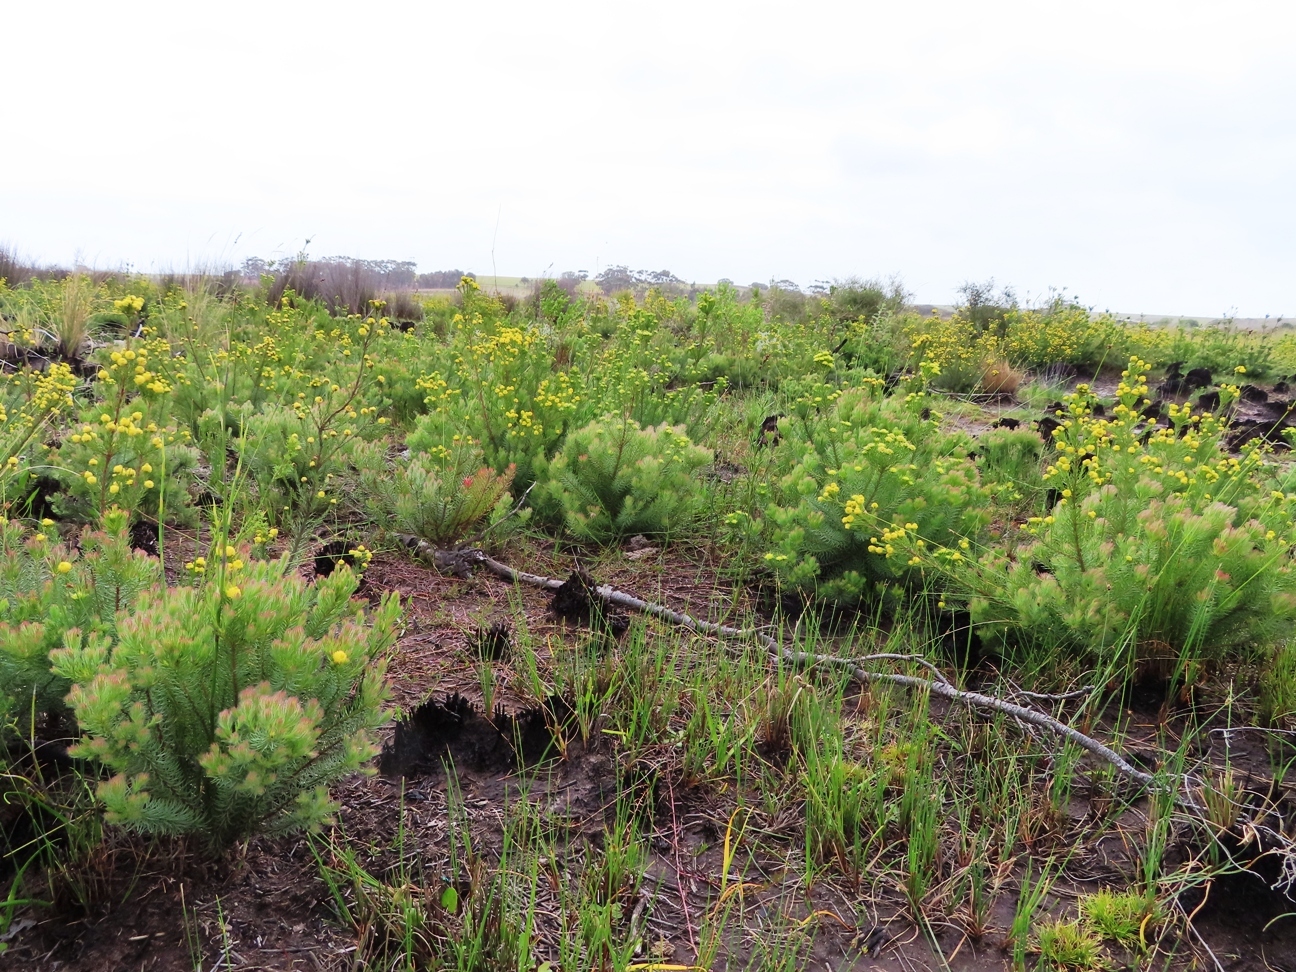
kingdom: Plantae
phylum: Tracheophyta
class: Magnoliopsida
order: Proteales
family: Proteaceae
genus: Leucadendron
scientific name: Leucadendron laxum
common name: Bredasdorp conebush
